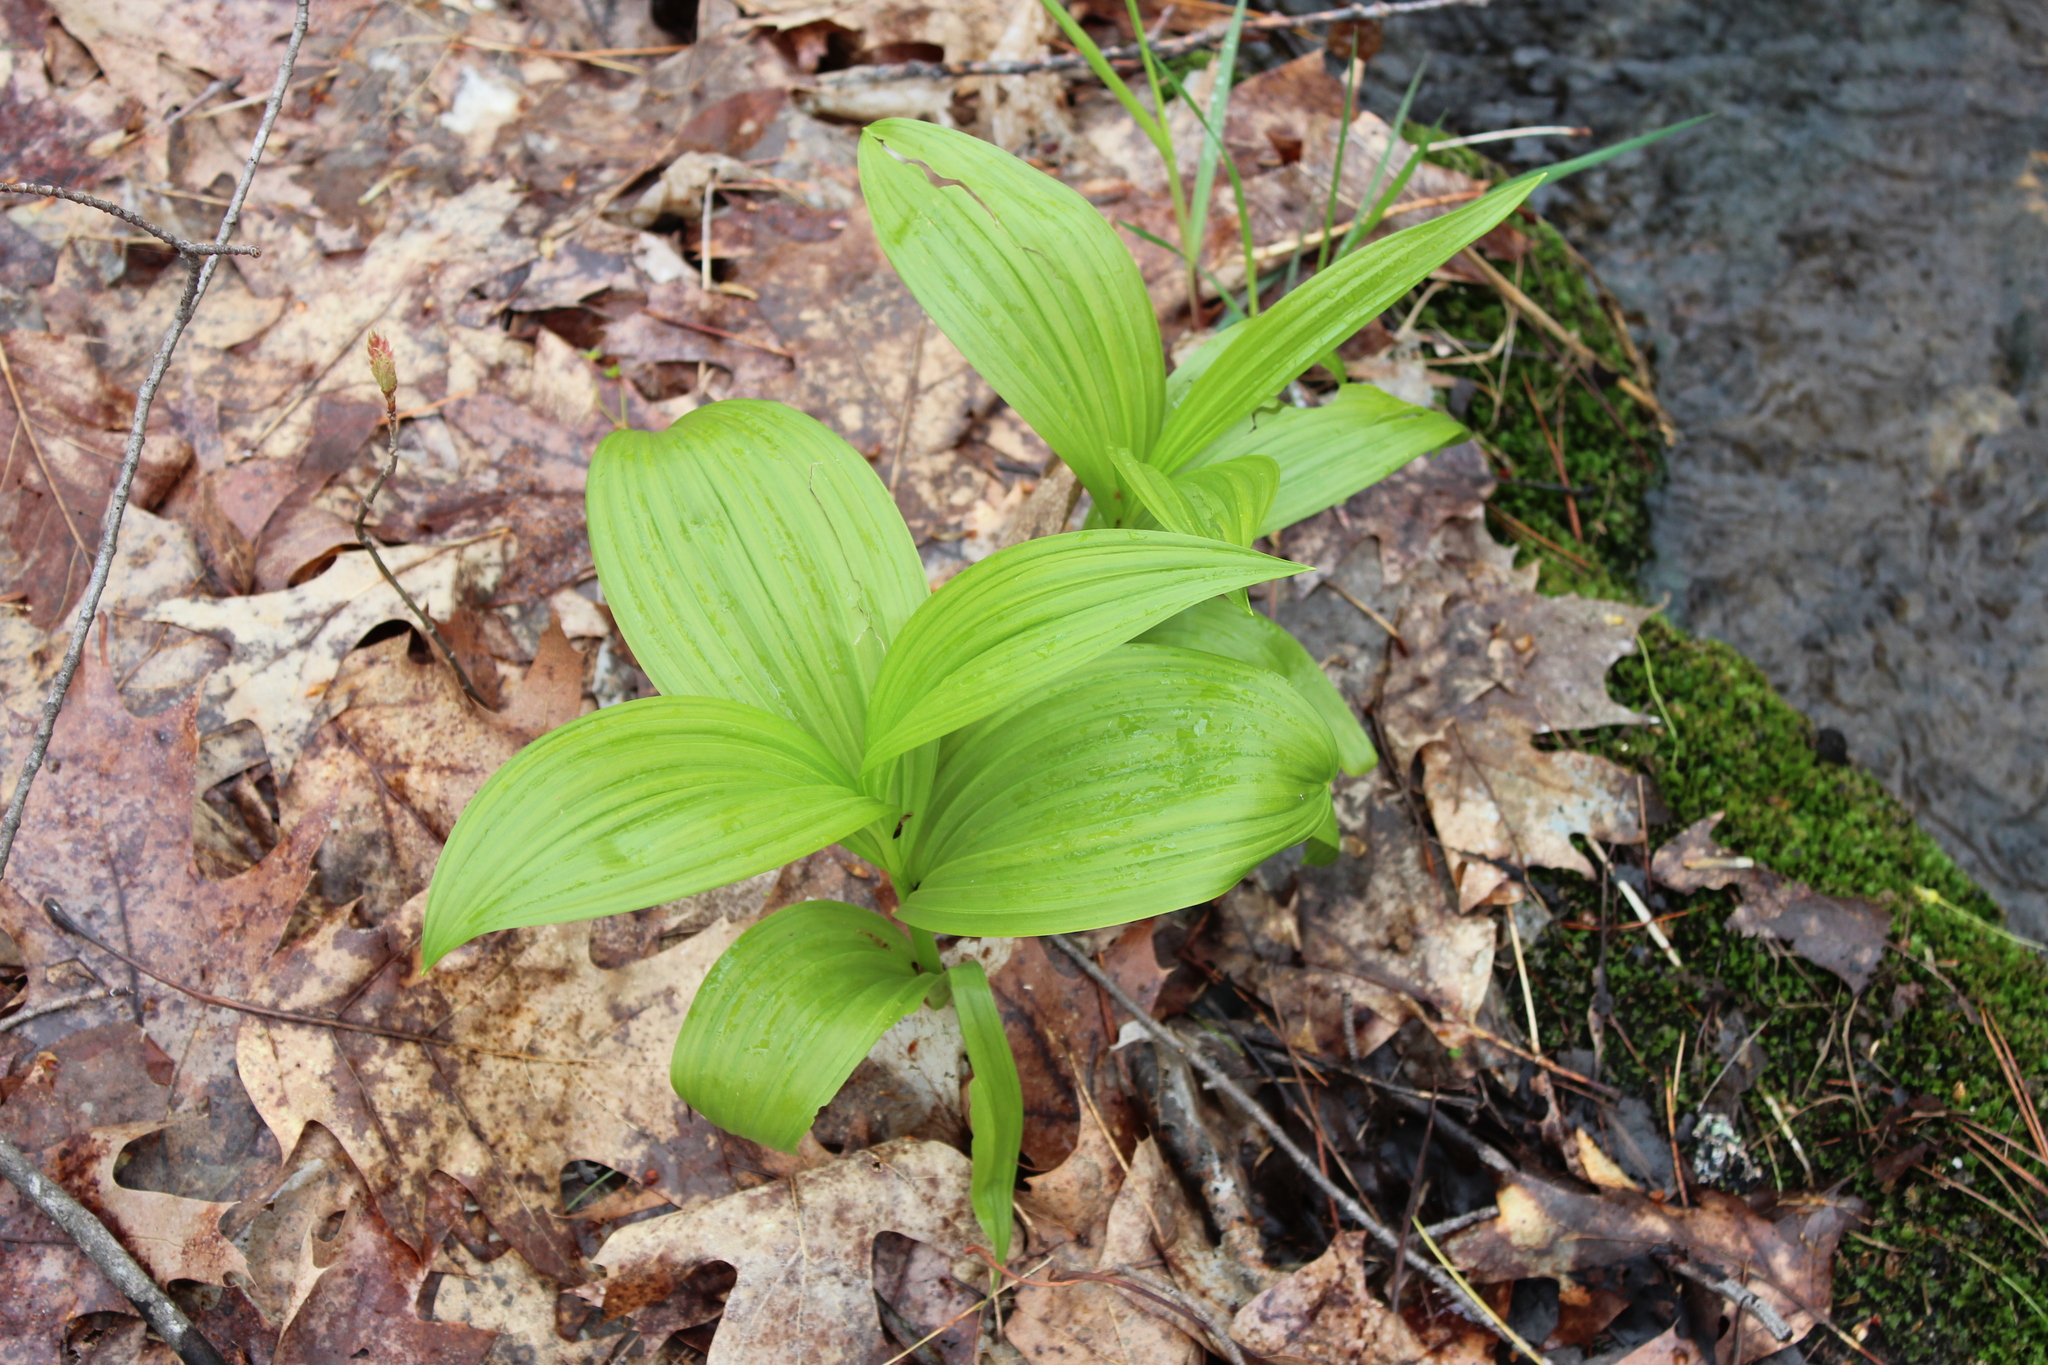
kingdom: Plantae
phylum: Tracheophyta
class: Liliopsida
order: Liliales
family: Melanthiaceae
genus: Veratrum
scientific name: Veratrum viride
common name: American false hellebore
